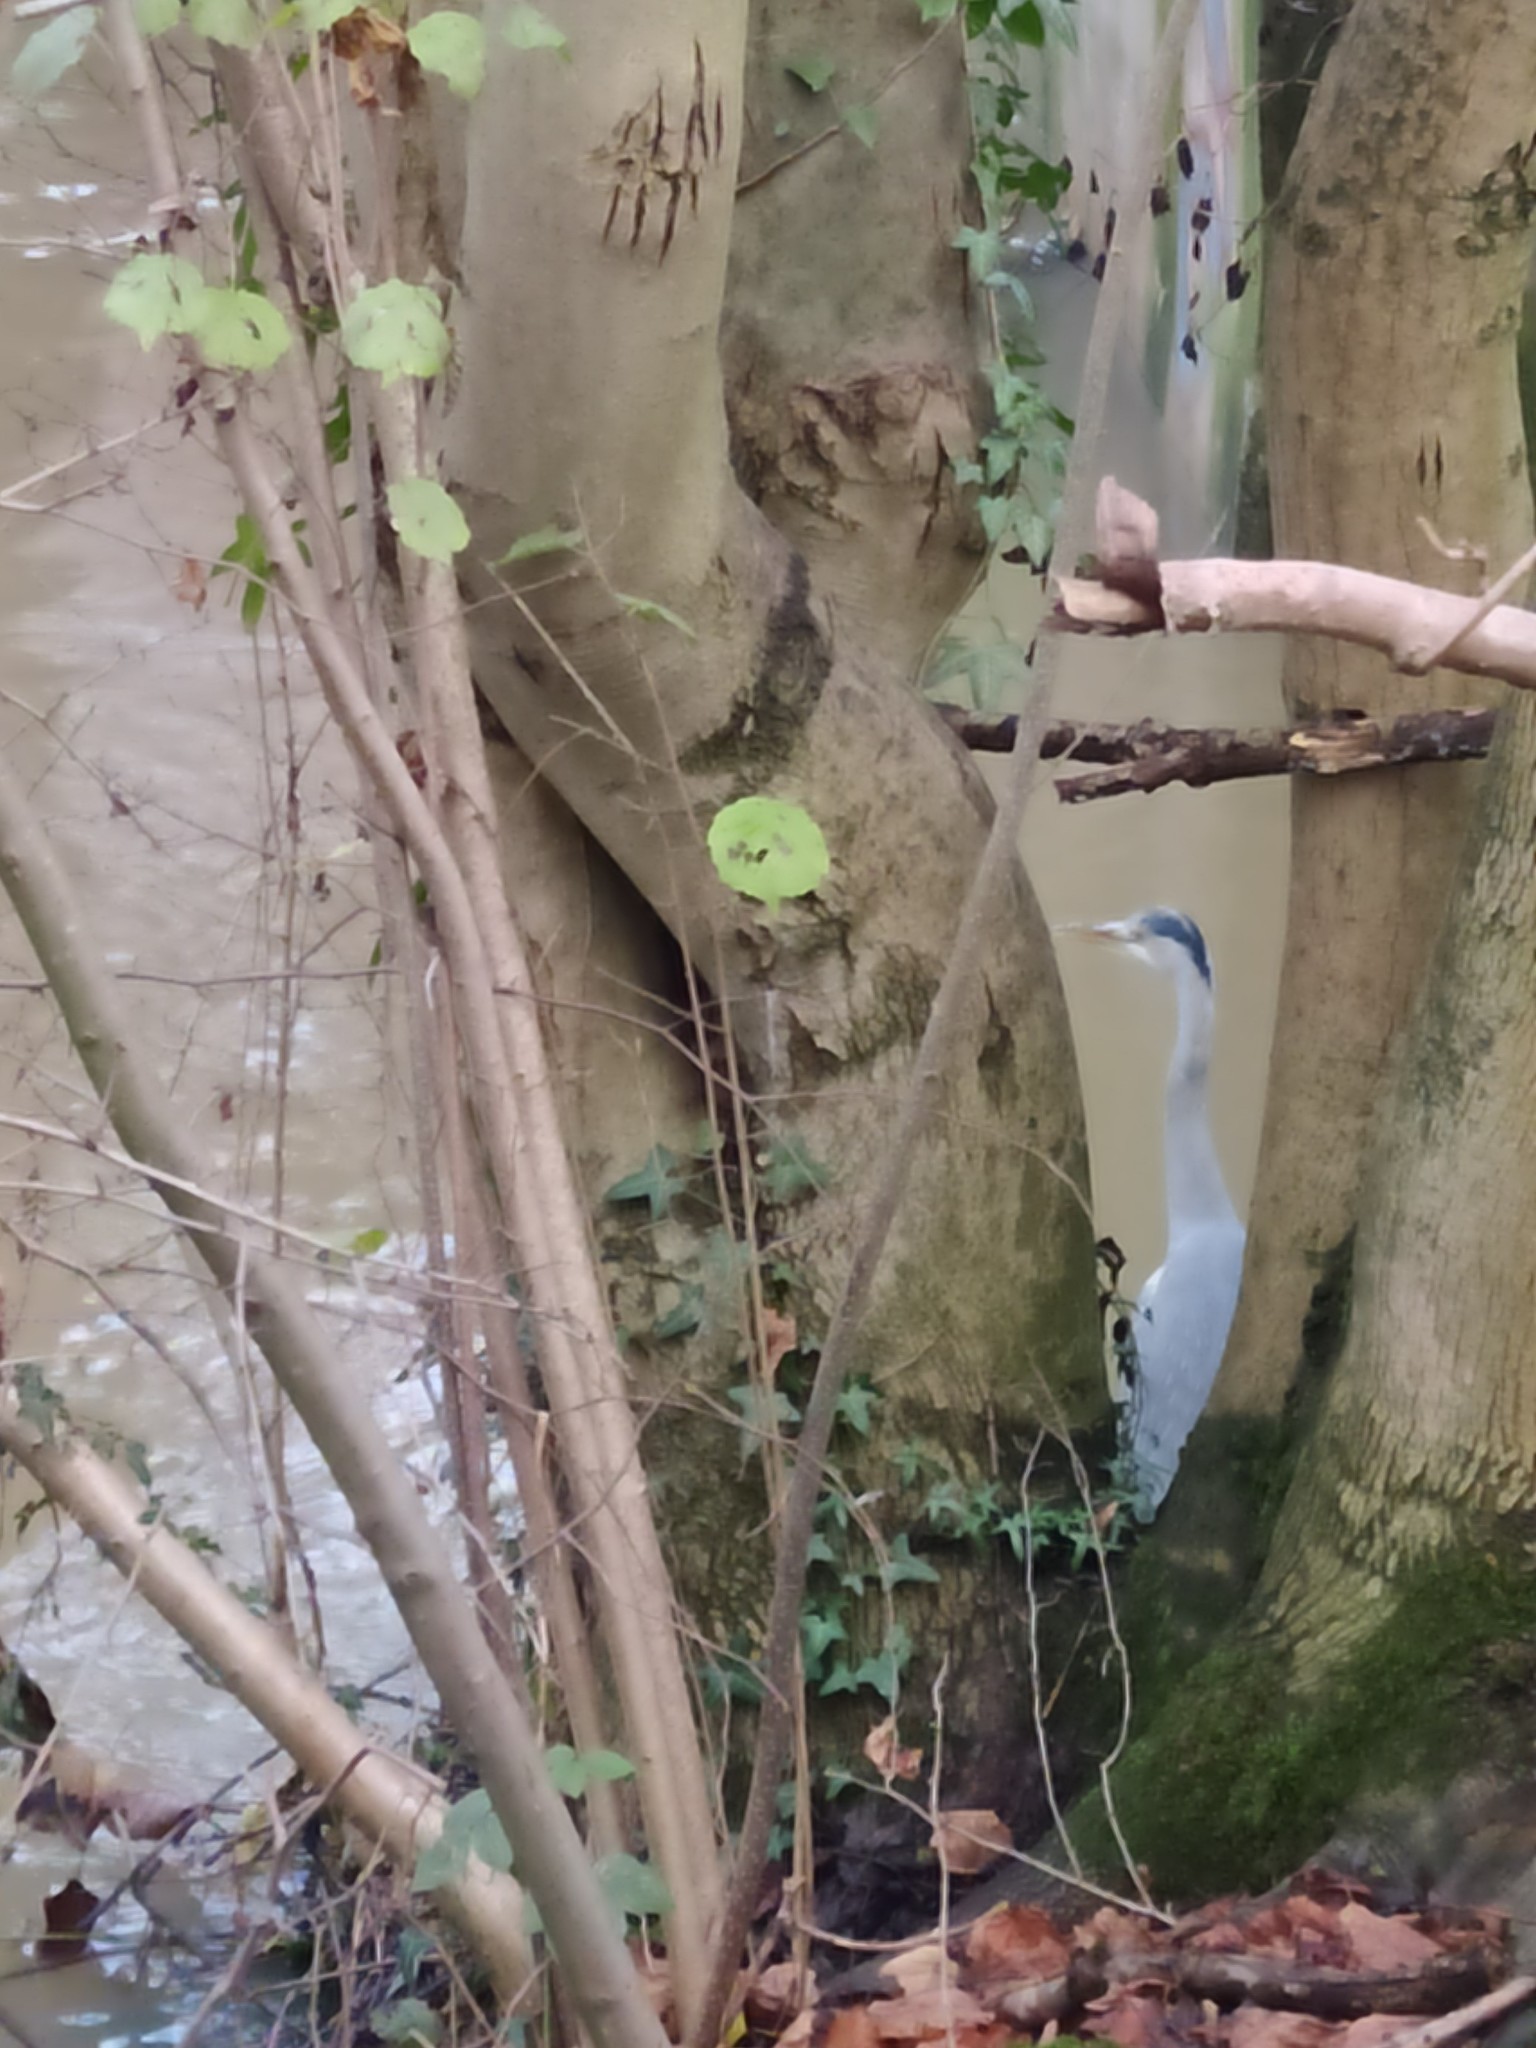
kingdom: Animalia
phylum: Chordata
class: Aves
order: Pelecaniformes
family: Ardeidae
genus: Ardea
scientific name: Ardea cinerea
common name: Grey heron
